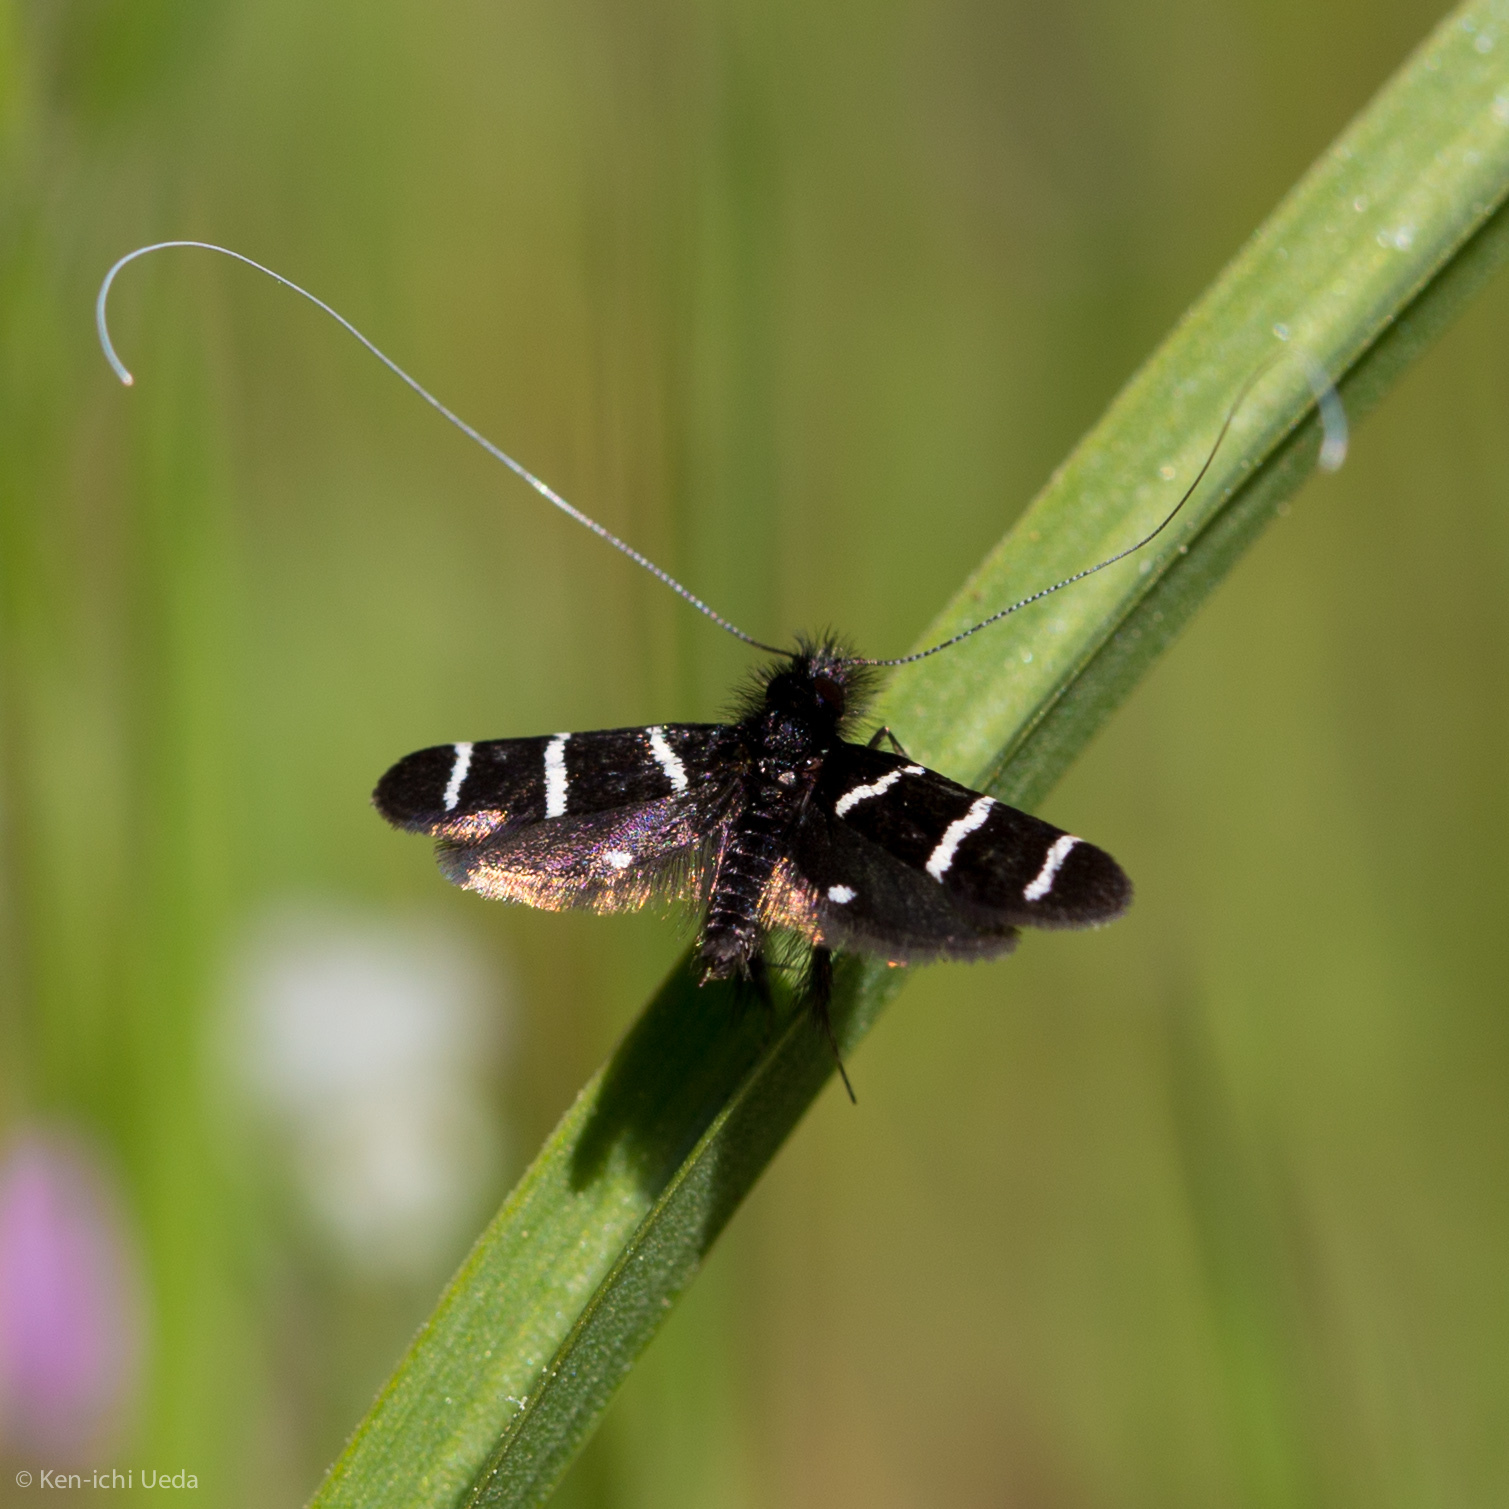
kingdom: Animalia
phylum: Arthropoda
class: Insecta
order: Lepidoptera
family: Adelidae
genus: Adela
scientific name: Adela trigrapha
